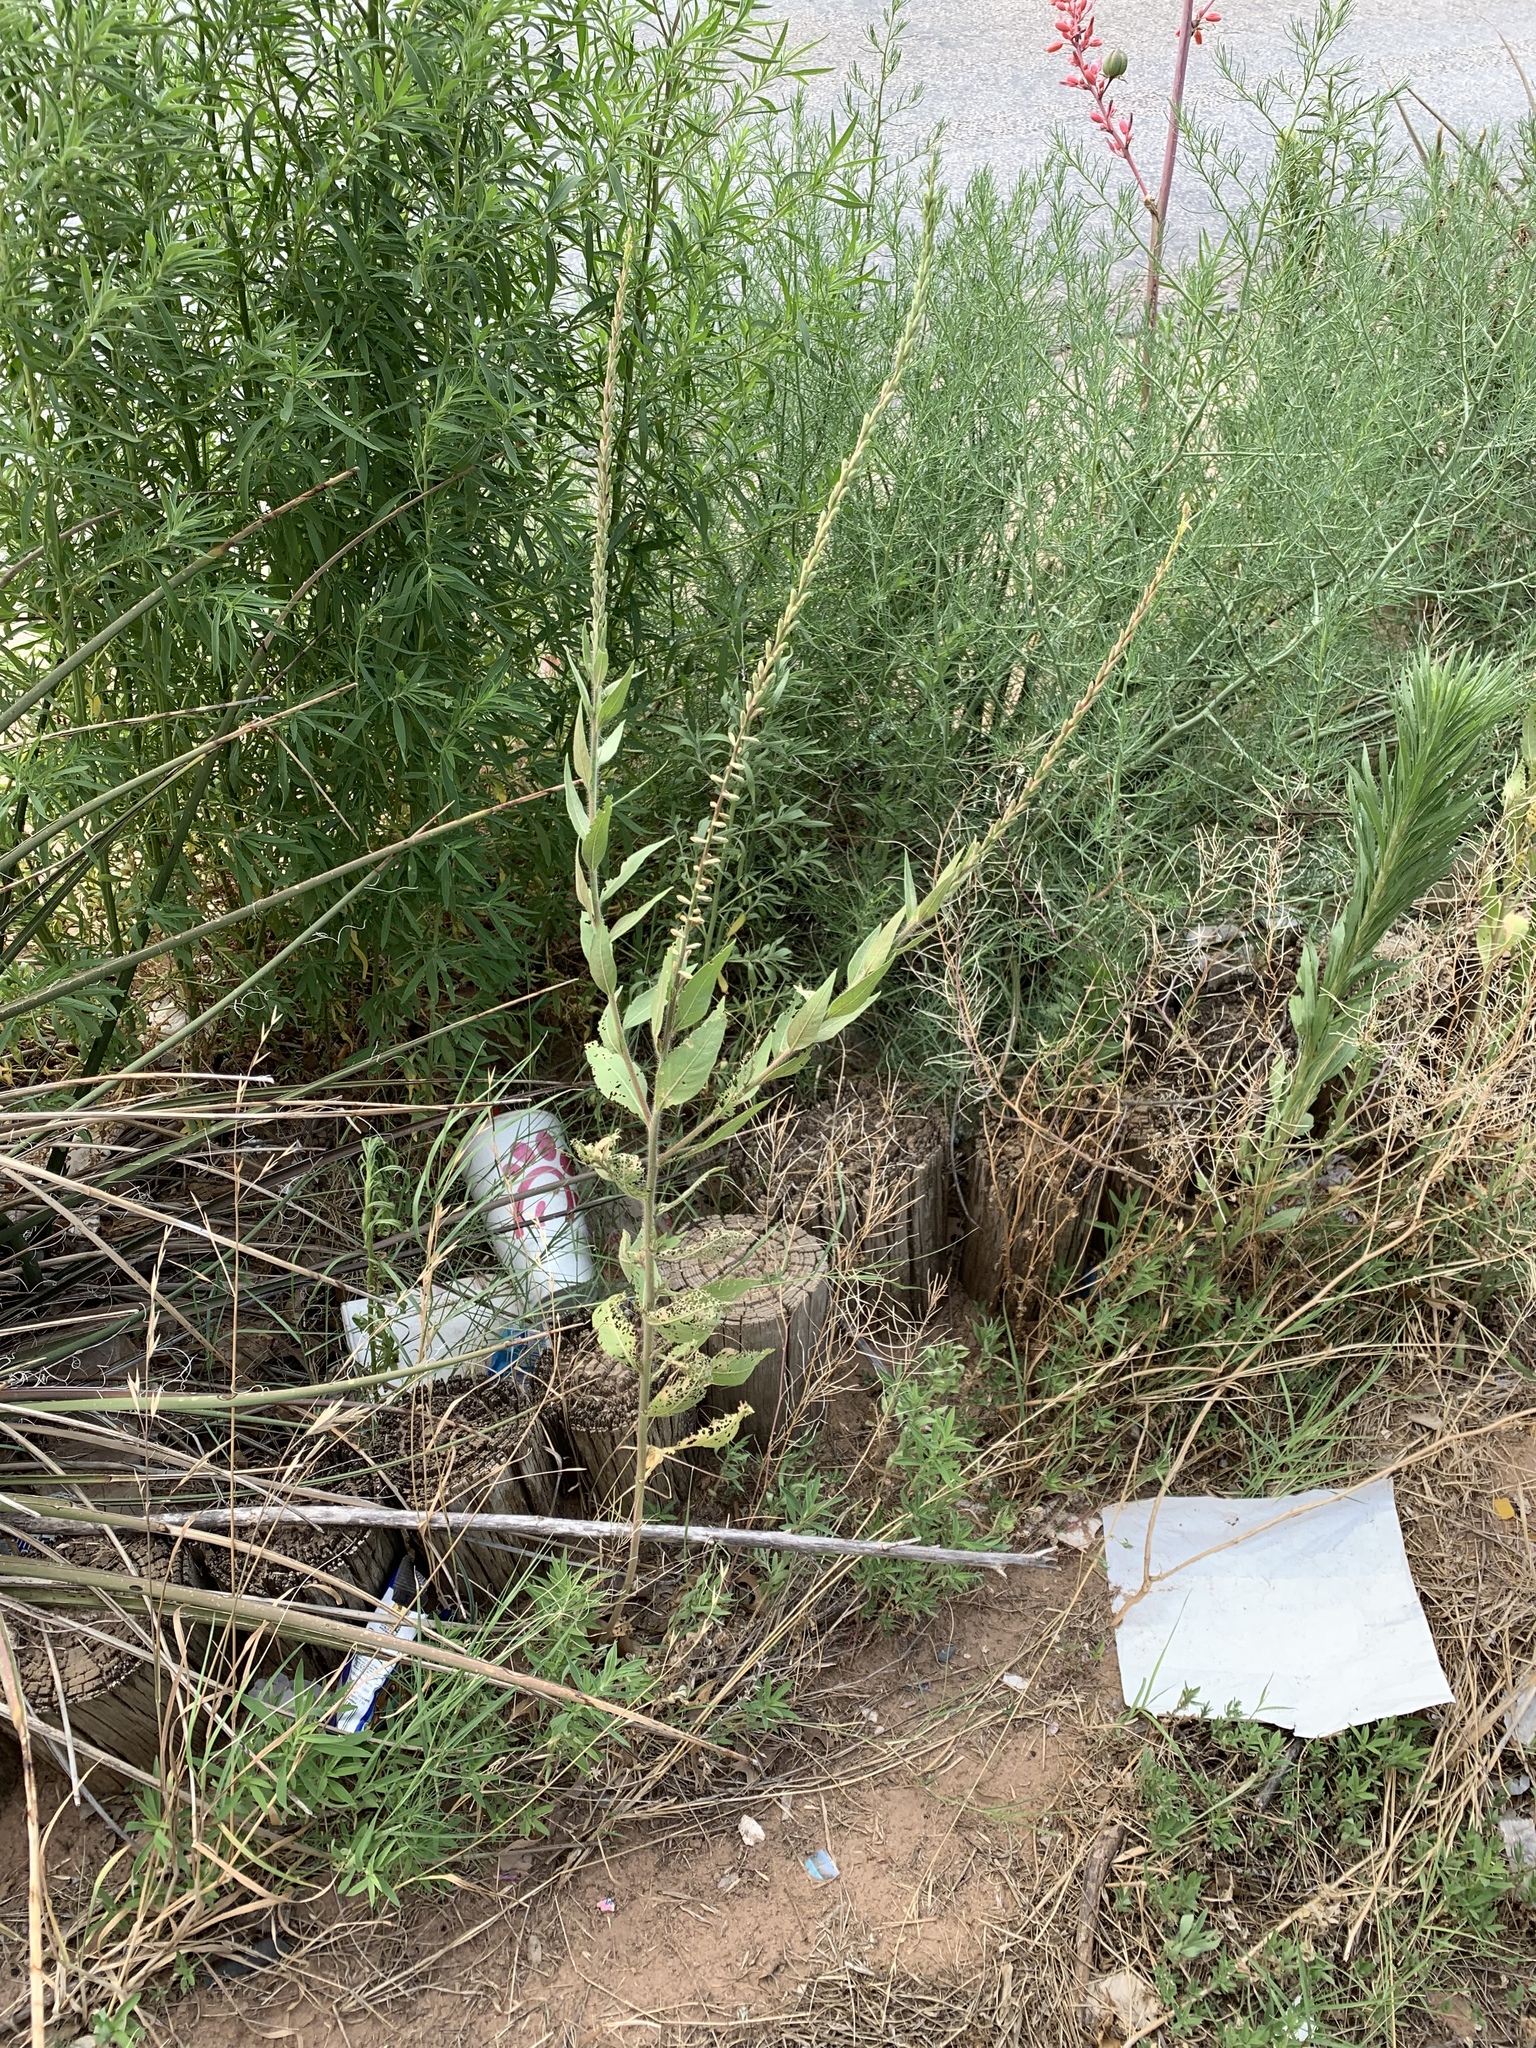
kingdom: Plantae
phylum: Tracheophyta
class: Magnoliopsida
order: Myrtales
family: Onagraceae
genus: Oenothera
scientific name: Oenothera curtiflora
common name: Velvetweed
